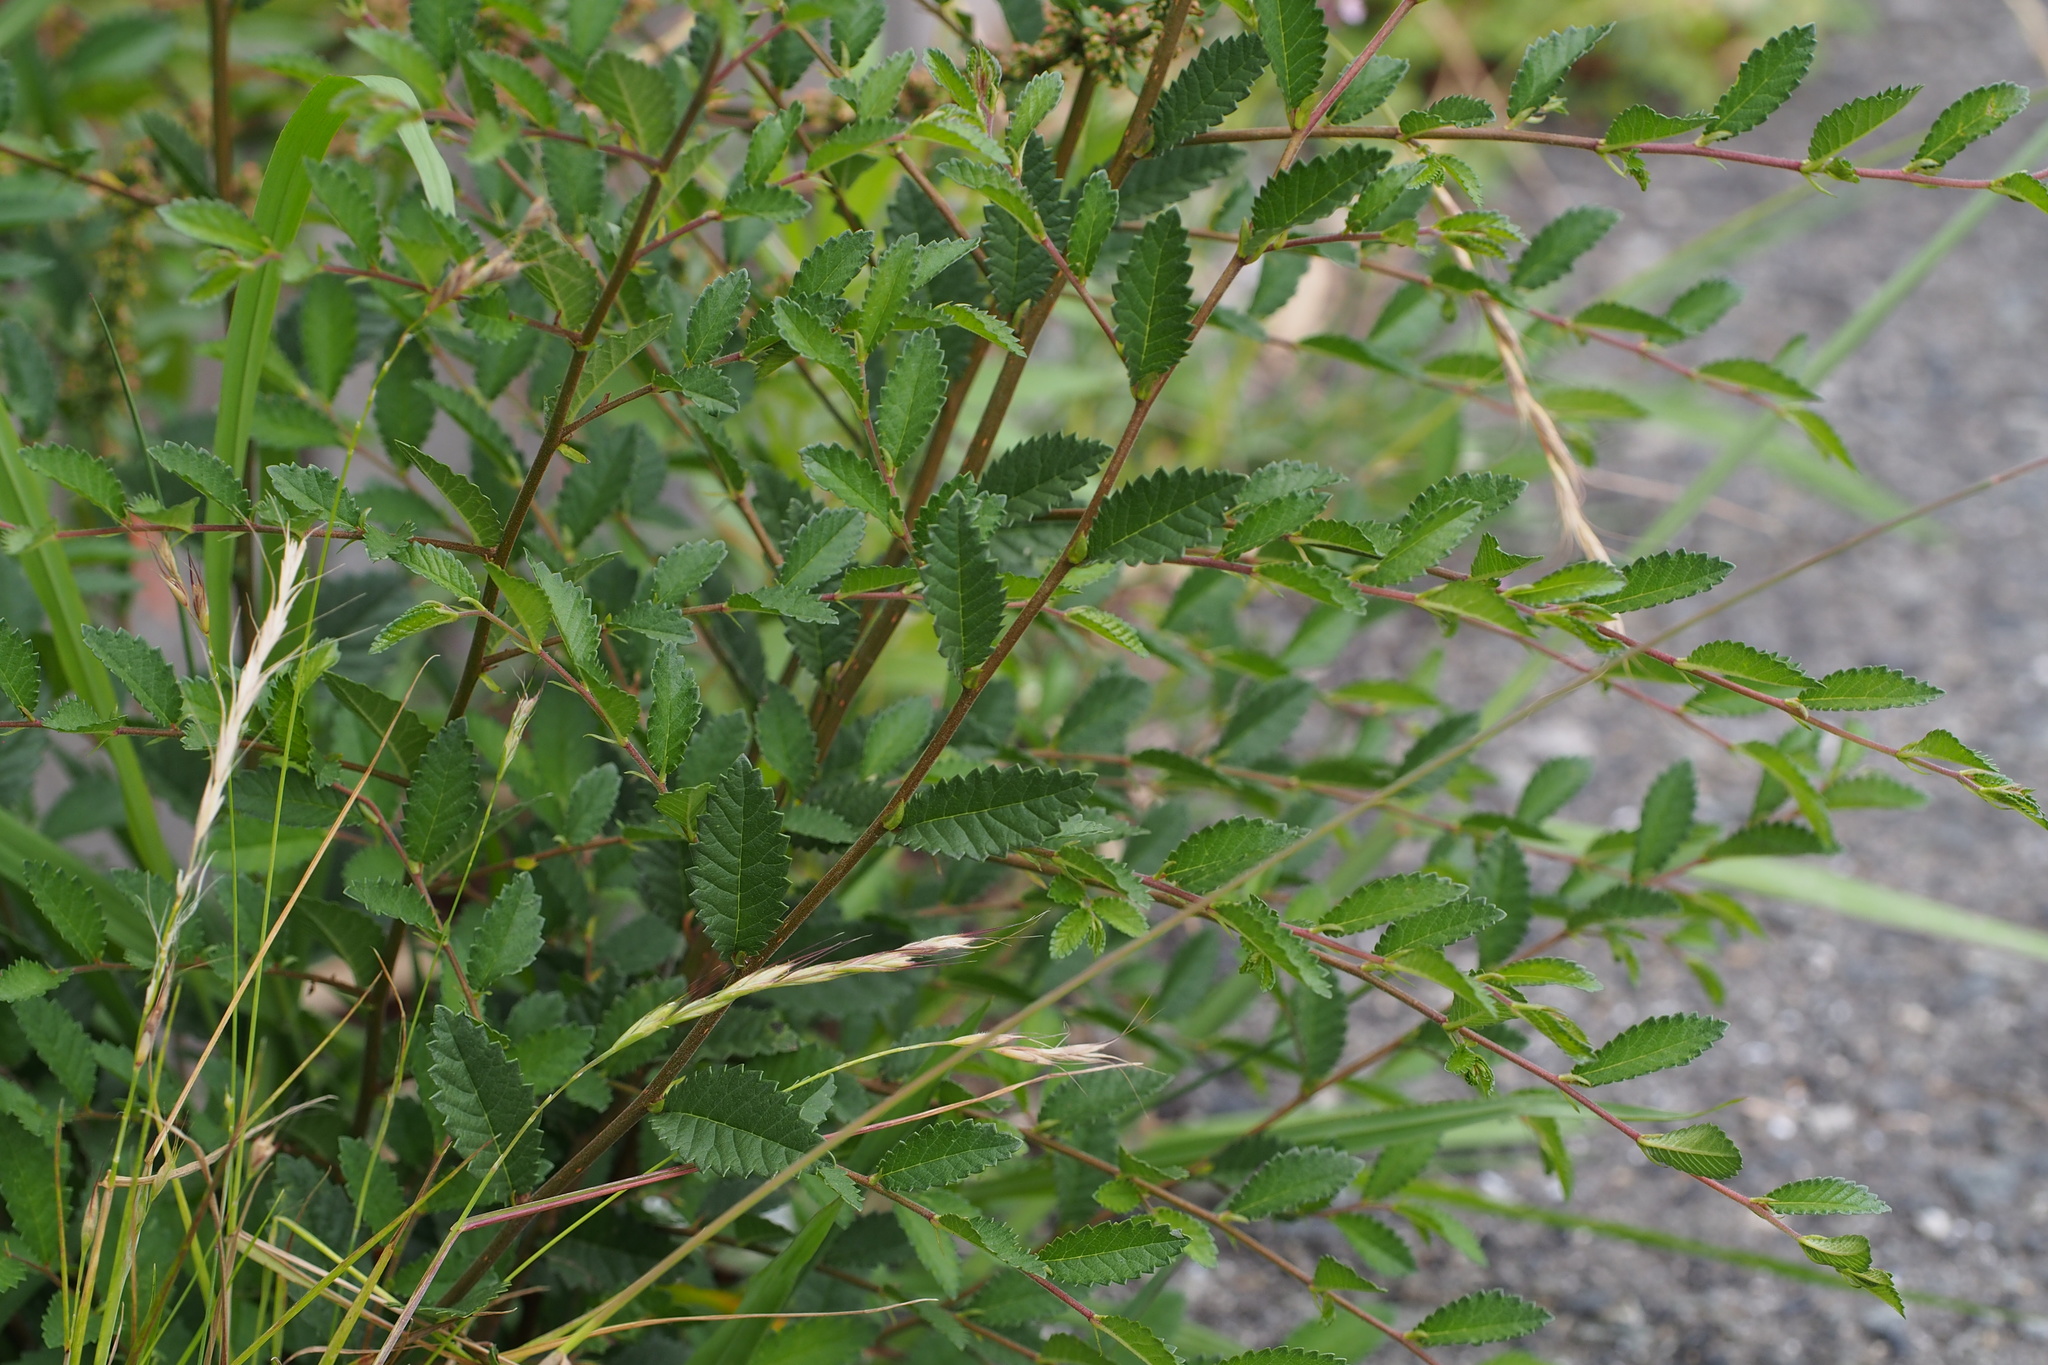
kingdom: Plantae
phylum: Tracheophyta
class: Magnoliopsida
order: Rosales
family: Ulmaceae
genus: Ulmus
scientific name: Ulmus parvifolia
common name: Chinese elm
